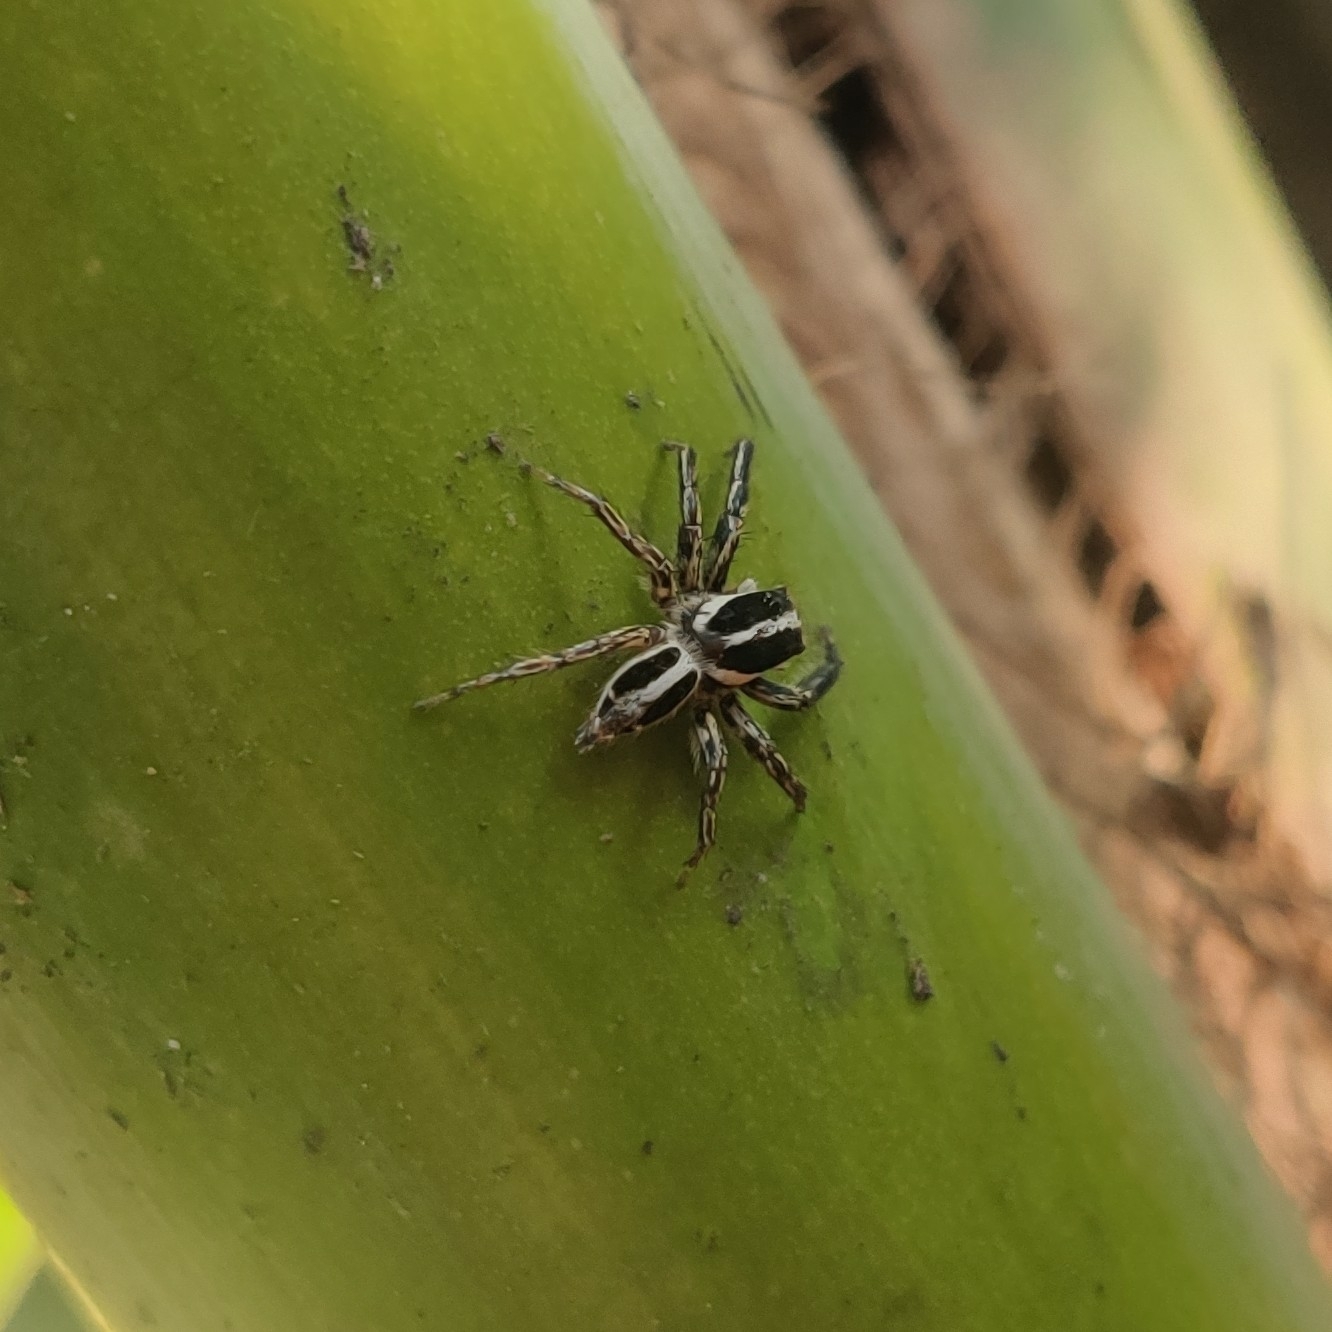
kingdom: Animalia
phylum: Arthropoda
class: Arachnida
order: Araneae
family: Salticidae
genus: Plexippus
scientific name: Plexippus paykulli
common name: Pantropical jumper
